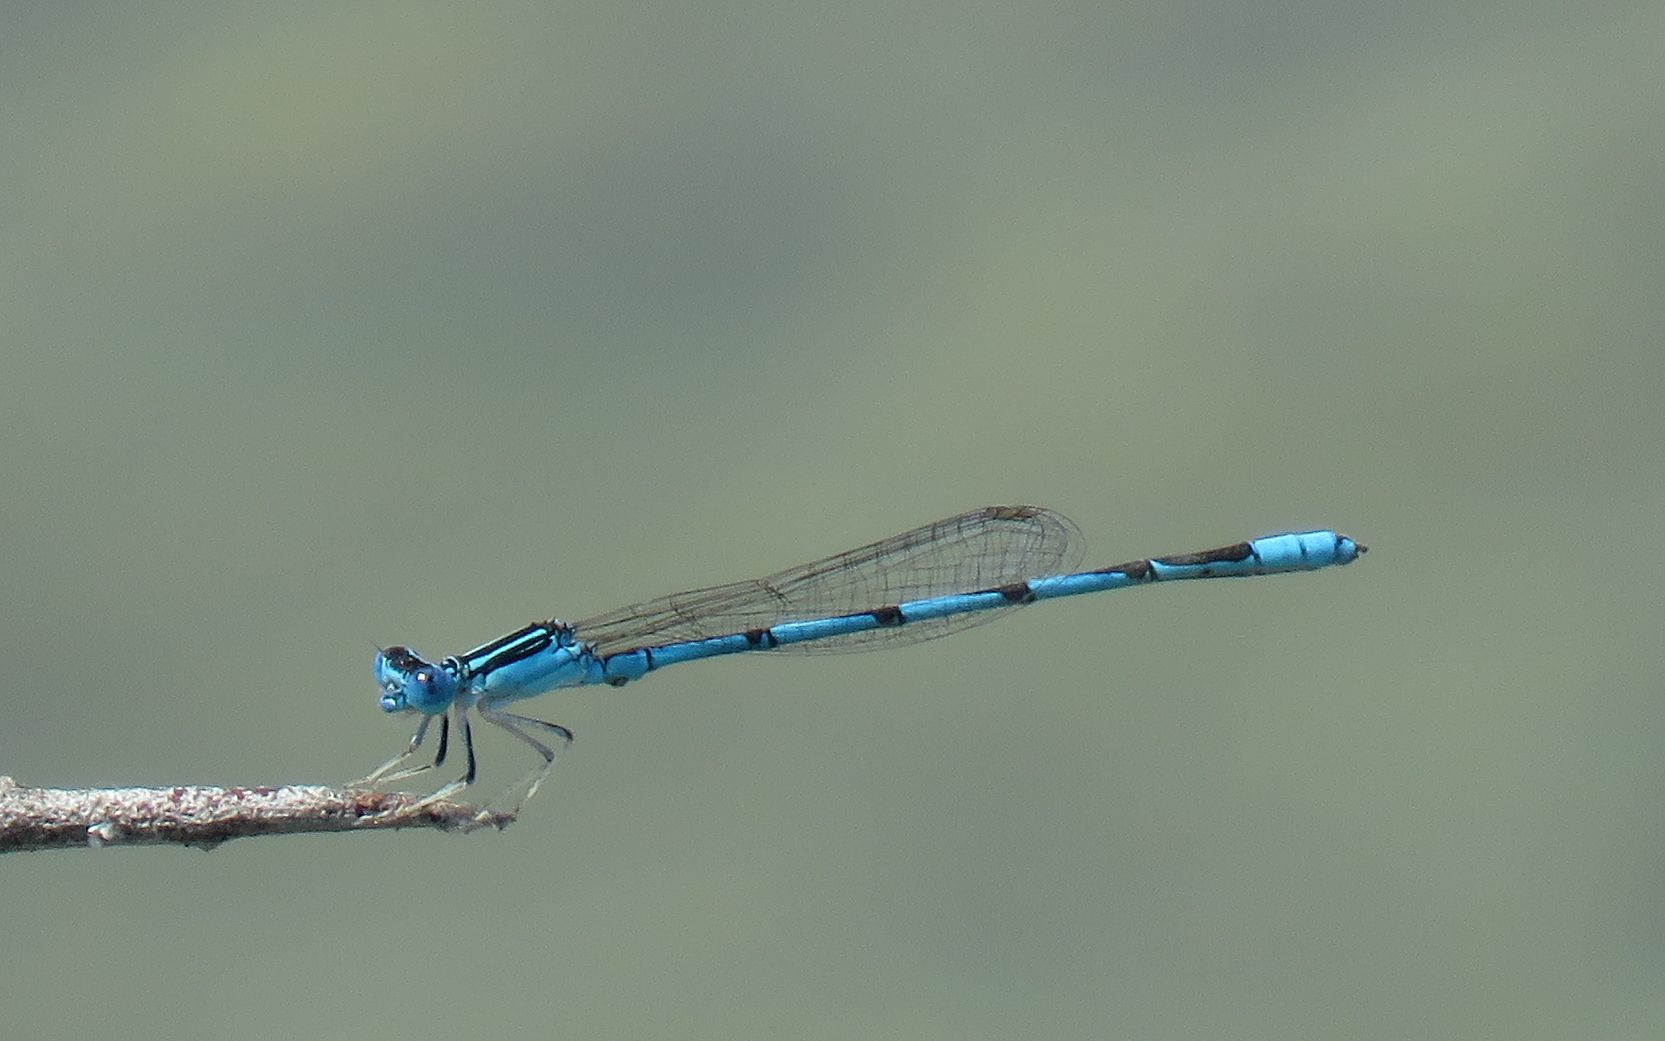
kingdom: Animalia
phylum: Arthropoda
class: Insecta
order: Odonata
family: Coenagrionidae
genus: Enallagma
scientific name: Enallagma basidens
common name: Double-striped bluet
